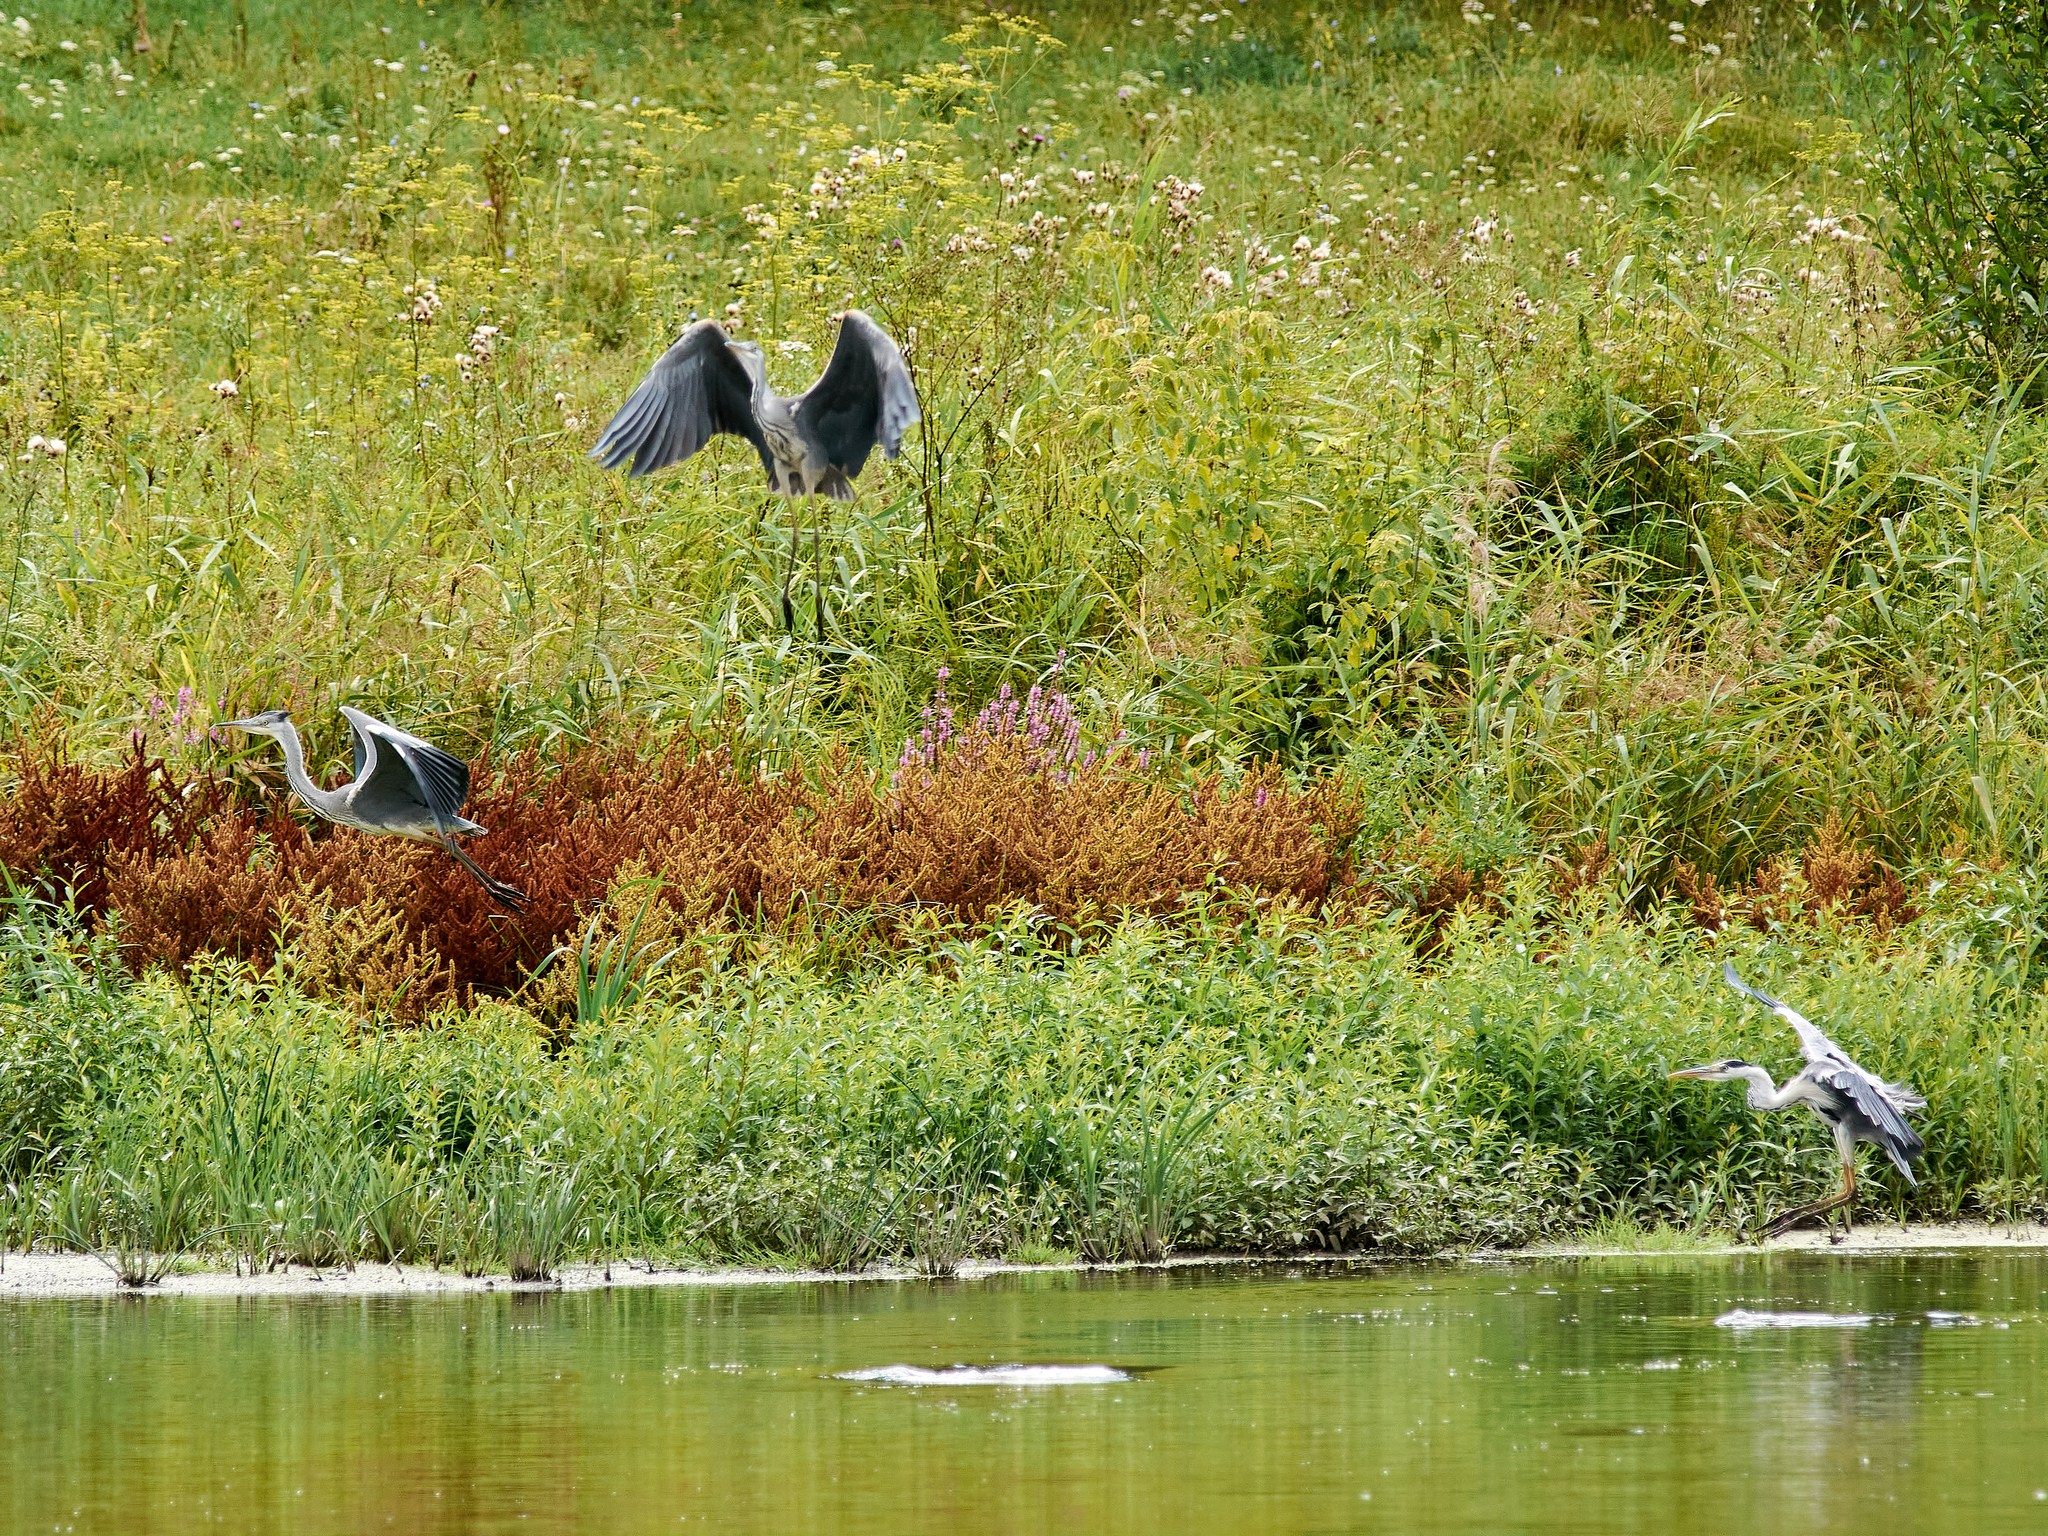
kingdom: Animalia
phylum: Chordata
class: Aves
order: Pelecaniformes
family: Ardeidae
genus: Ardea
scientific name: Ardea cinerea
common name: Grey heron
